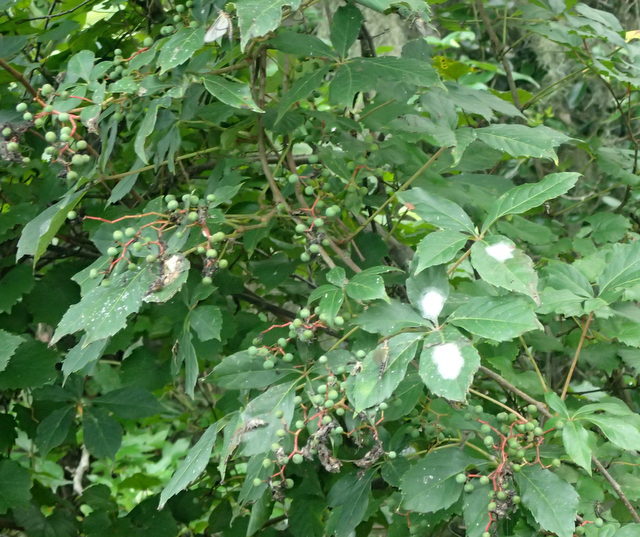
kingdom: Plantae
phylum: Tracheophyta
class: Magnoliopsida
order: Vitales
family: Vitaceae
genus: Parthenocissus
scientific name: Parthenocissus quinquefolia
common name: Virginia-creeper
